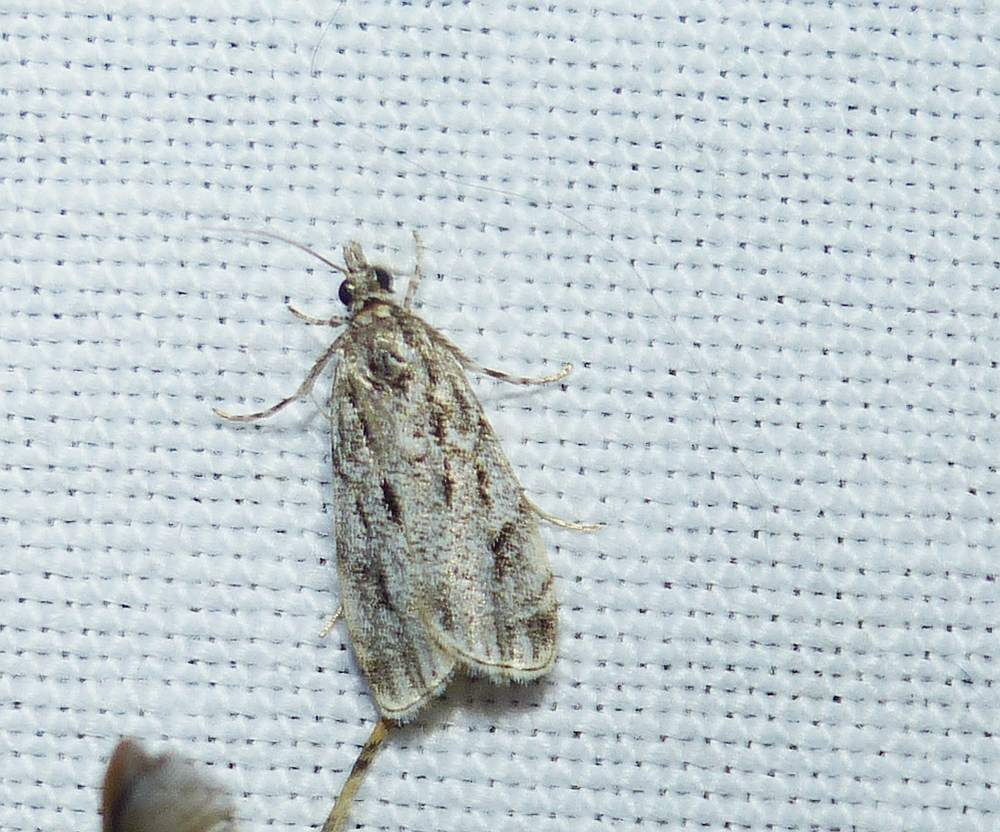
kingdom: Animalia
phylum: Arthropoda
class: Insecta
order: Lepidoptera
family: Crambidae
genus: Eudonia
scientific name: Eudonia strigalis
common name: Striped eudonia moth
